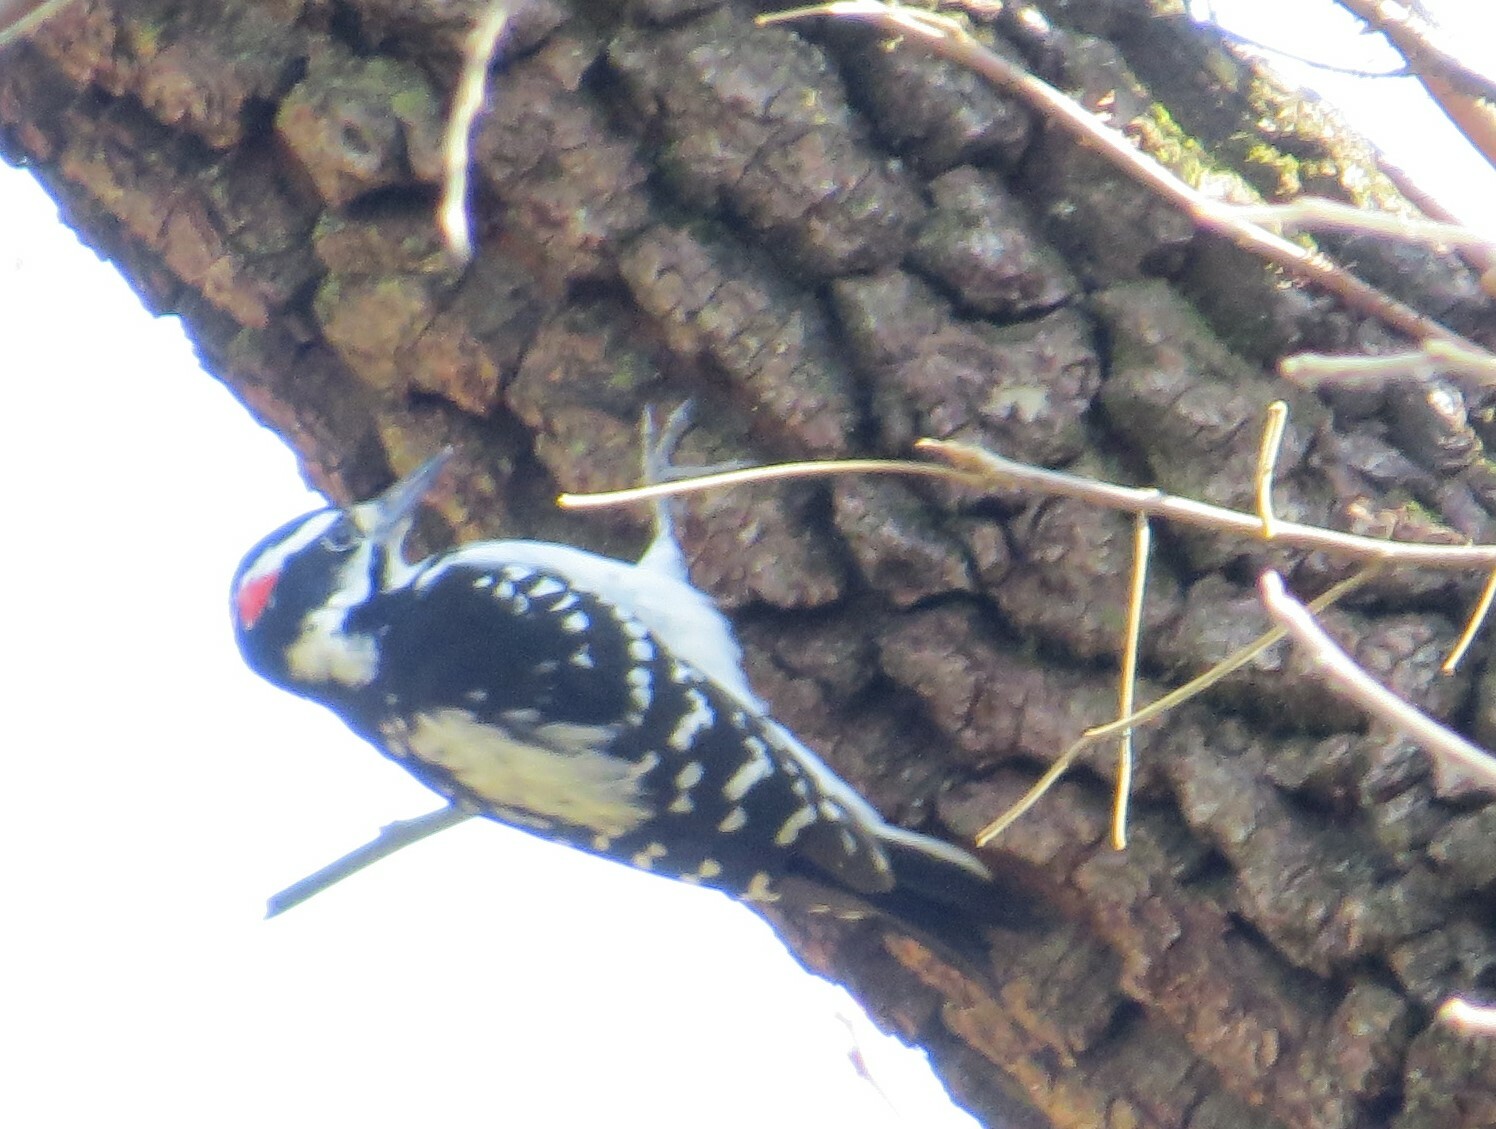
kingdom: Animalia
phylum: Chordata
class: Aves
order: Piciformes
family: Picidae
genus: Leuconotopicus
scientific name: Leuconotopicus villosus
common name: Hairy woodpecker
